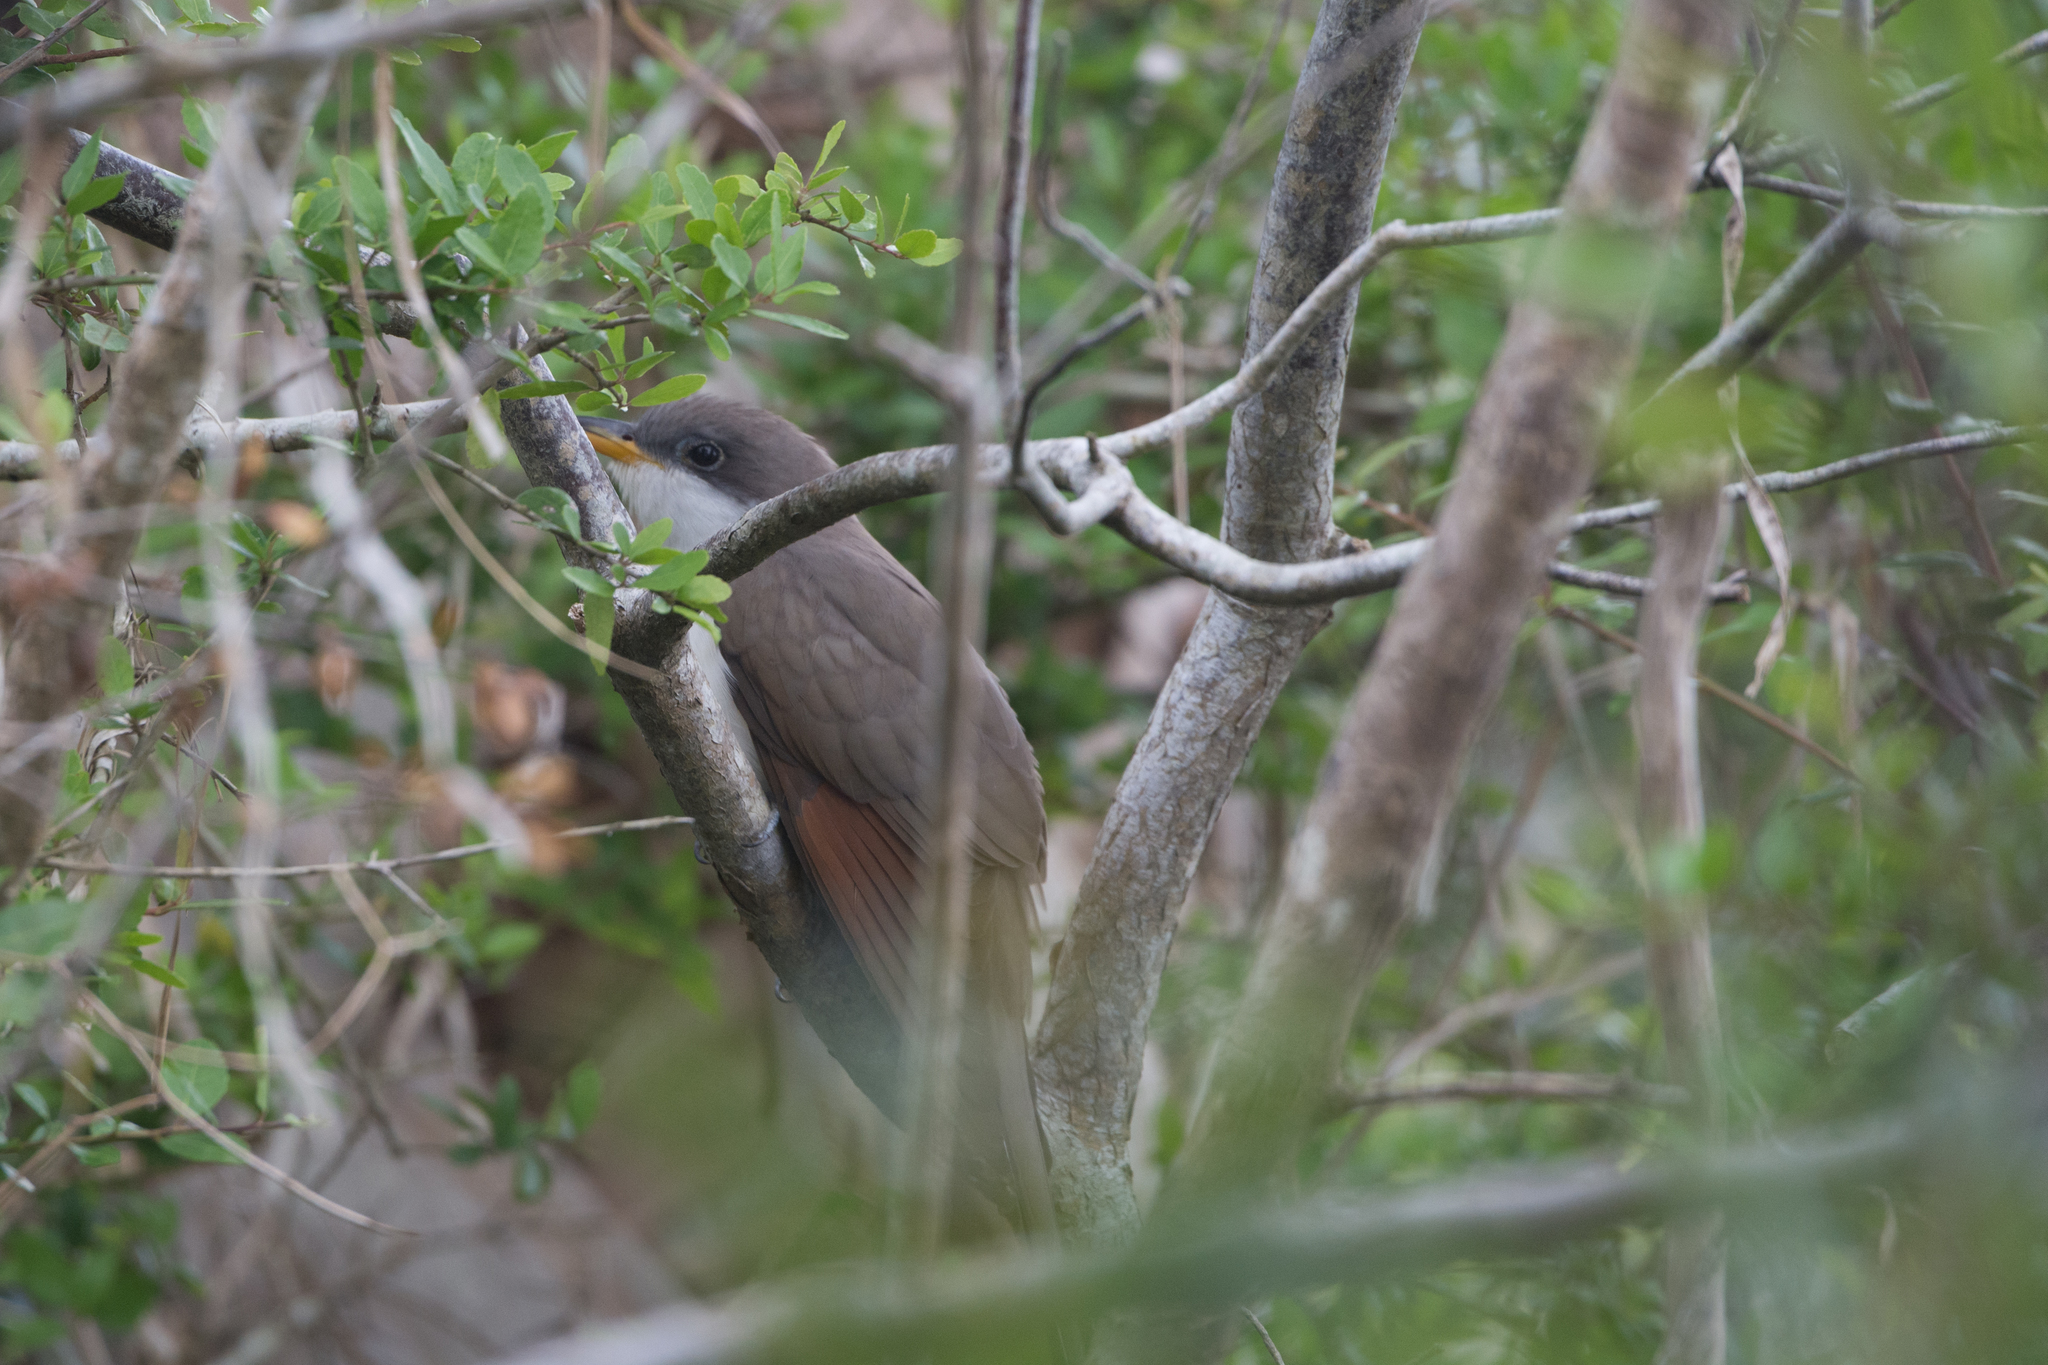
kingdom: Animalia
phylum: Chordata
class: Aves
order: Cuculiformes
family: Cuculidae
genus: Coccyzus
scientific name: Coccyzus americanus
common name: Yellow-billed cuckoo
